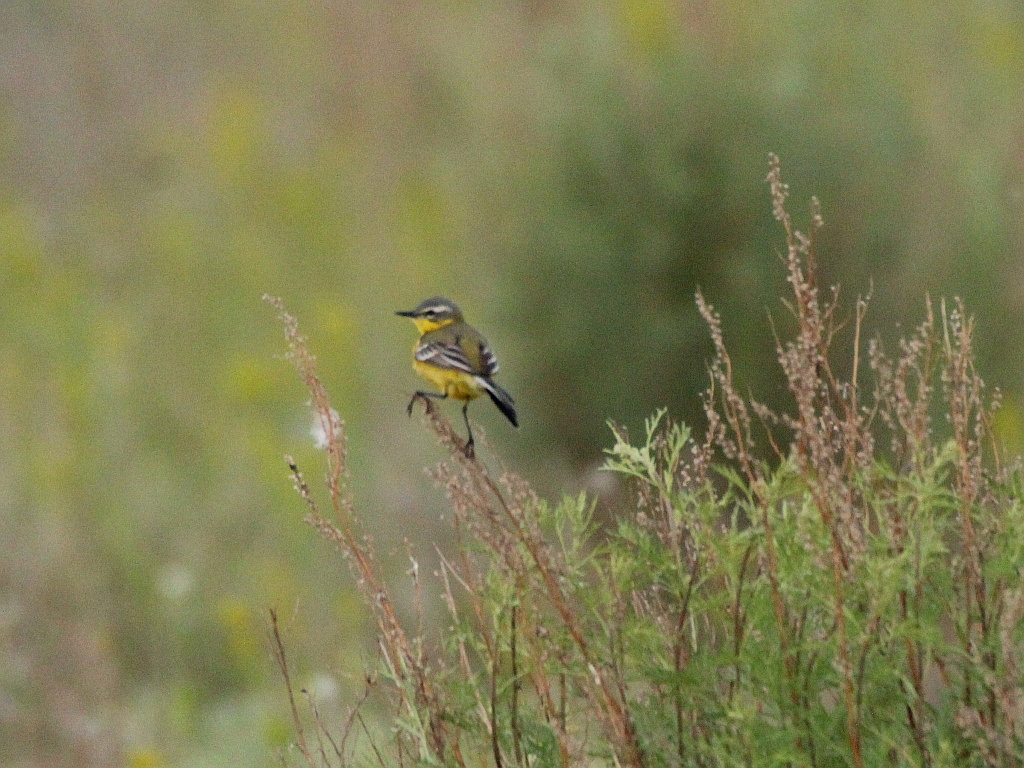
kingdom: Animalia
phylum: Chordata
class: Aves
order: Passeriformes
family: Motacillidae
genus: Motacilla
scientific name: Motacilla flava
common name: Western yellow wagtail
